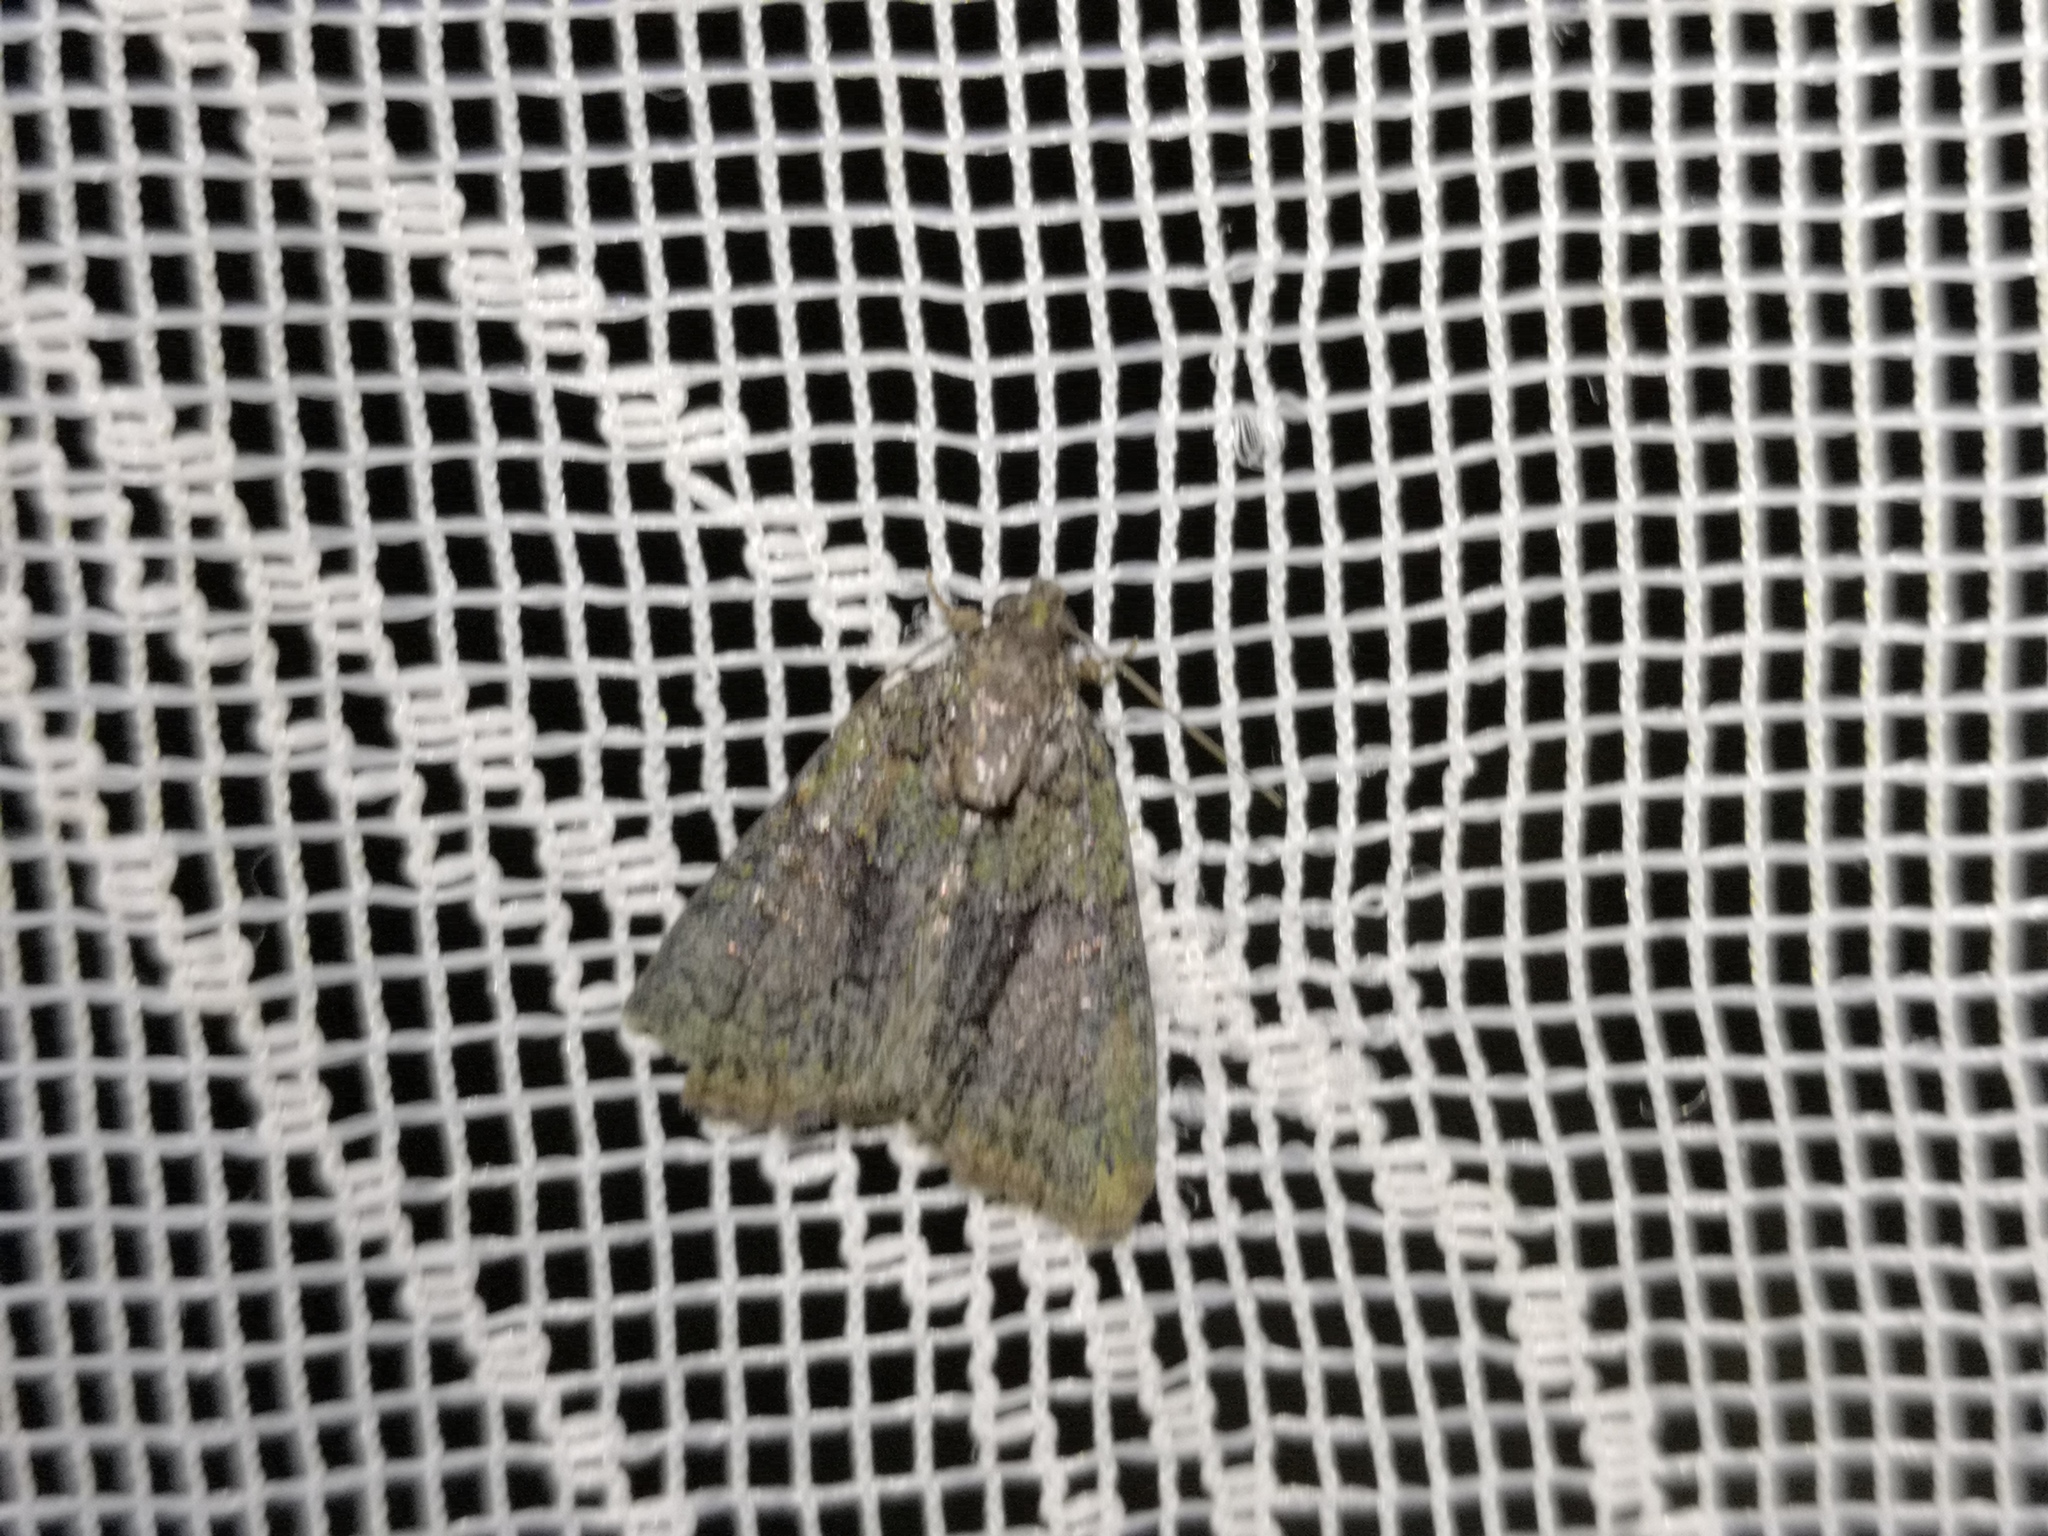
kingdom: Animalia
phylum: Arthropoda
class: Insecta
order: Lepidoptera
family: Noctuidae
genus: Cryphia
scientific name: Cryphia algae
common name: Tree-lichen beauty
